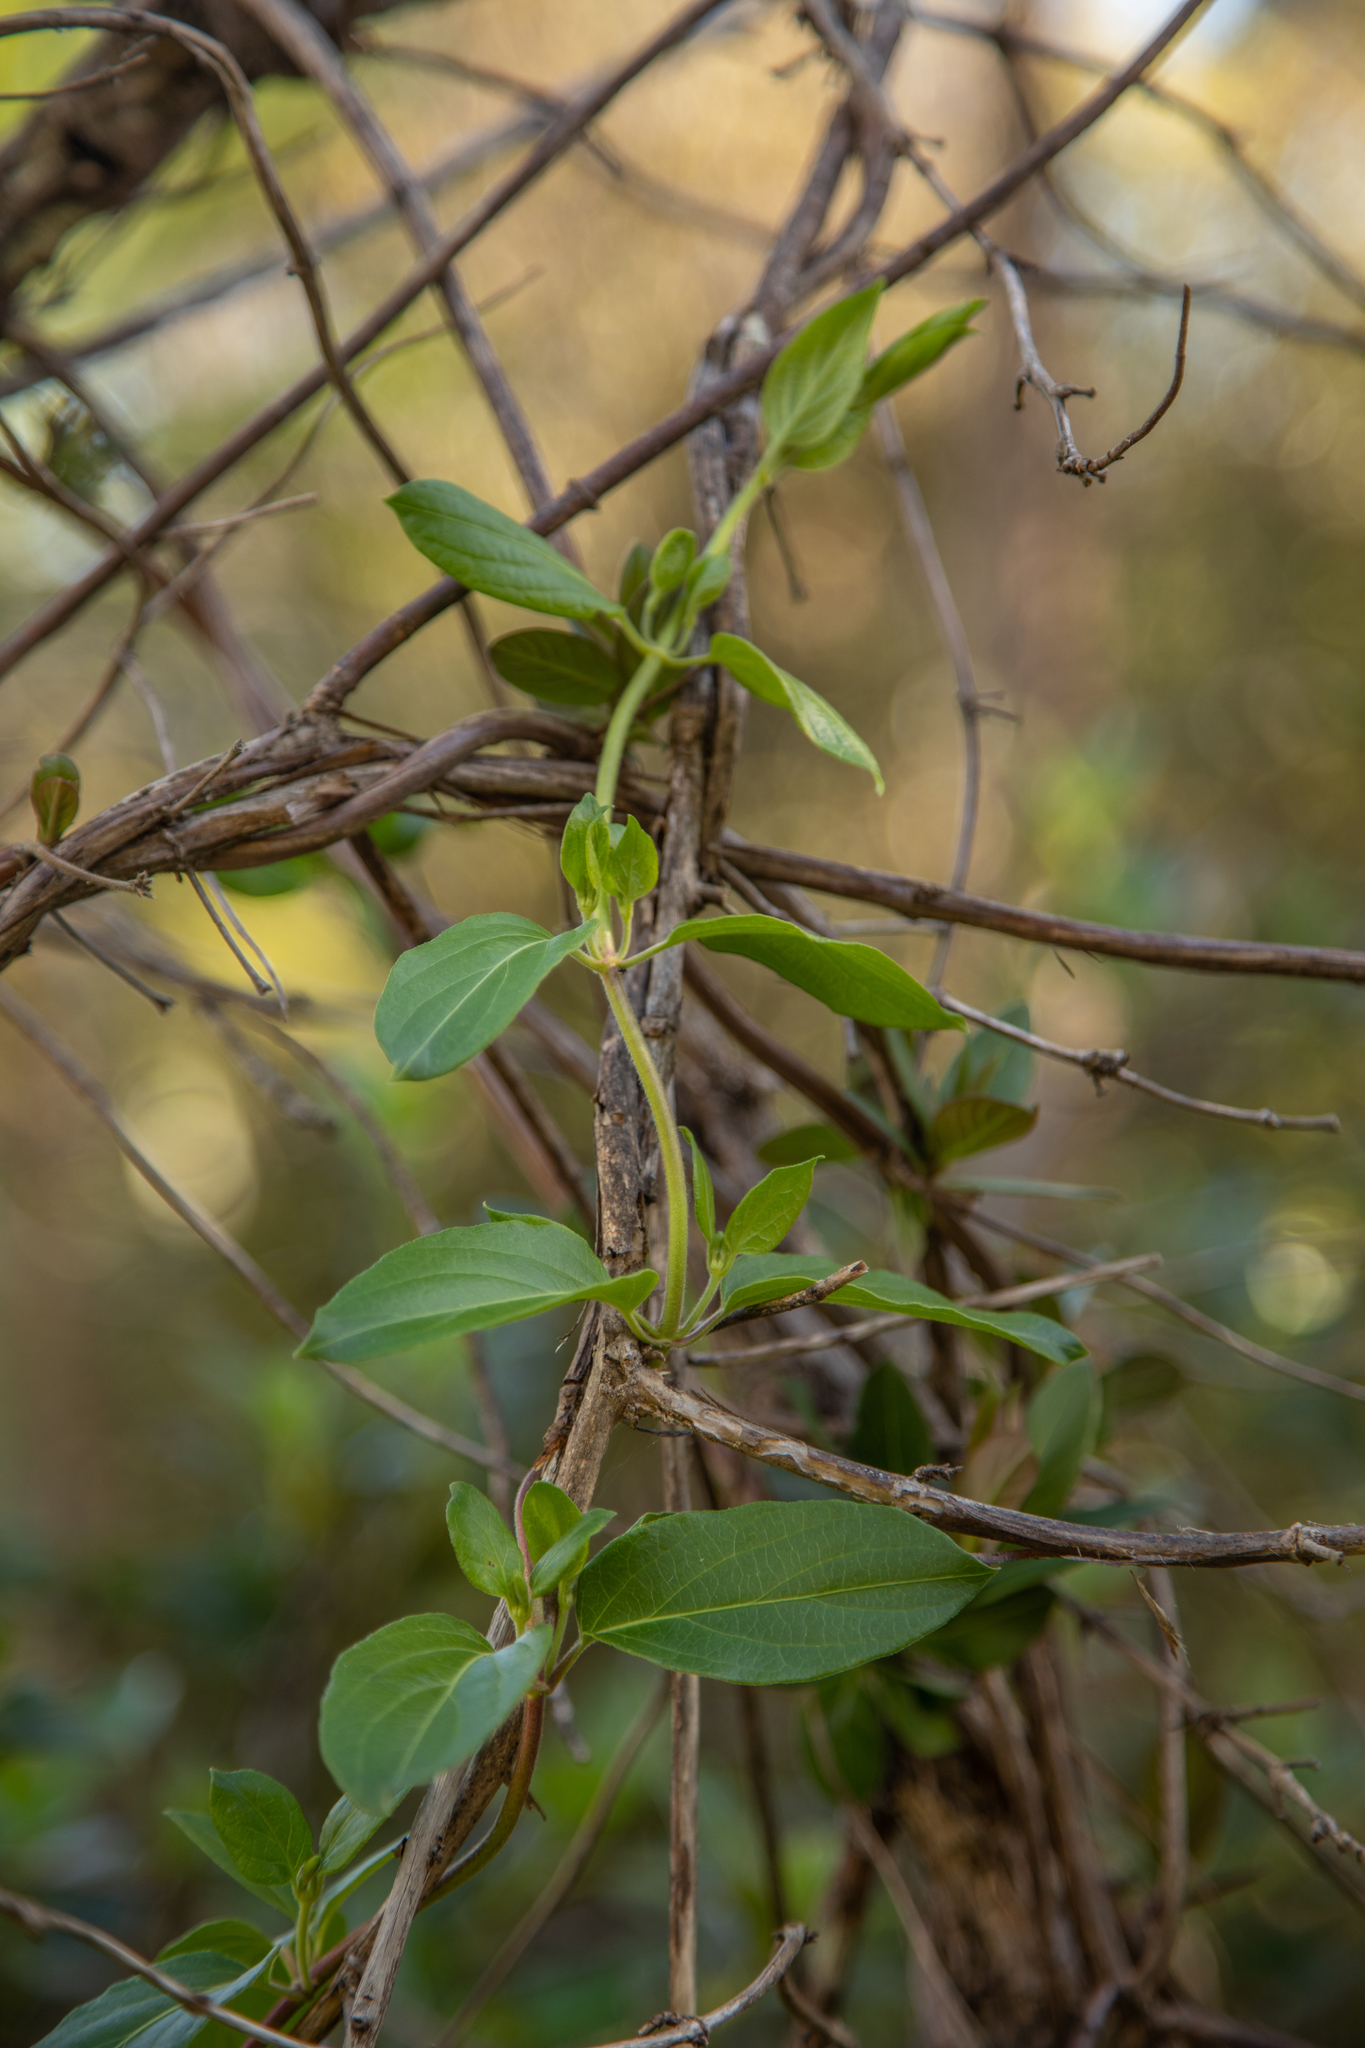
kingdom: Plantae
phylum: Tracheophyta
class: Magnoliopsida
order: Dipsacales
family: Caprifoliaceae
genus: Lonicera
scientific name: Lonicera japonica
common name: Japanese honeysuckle
